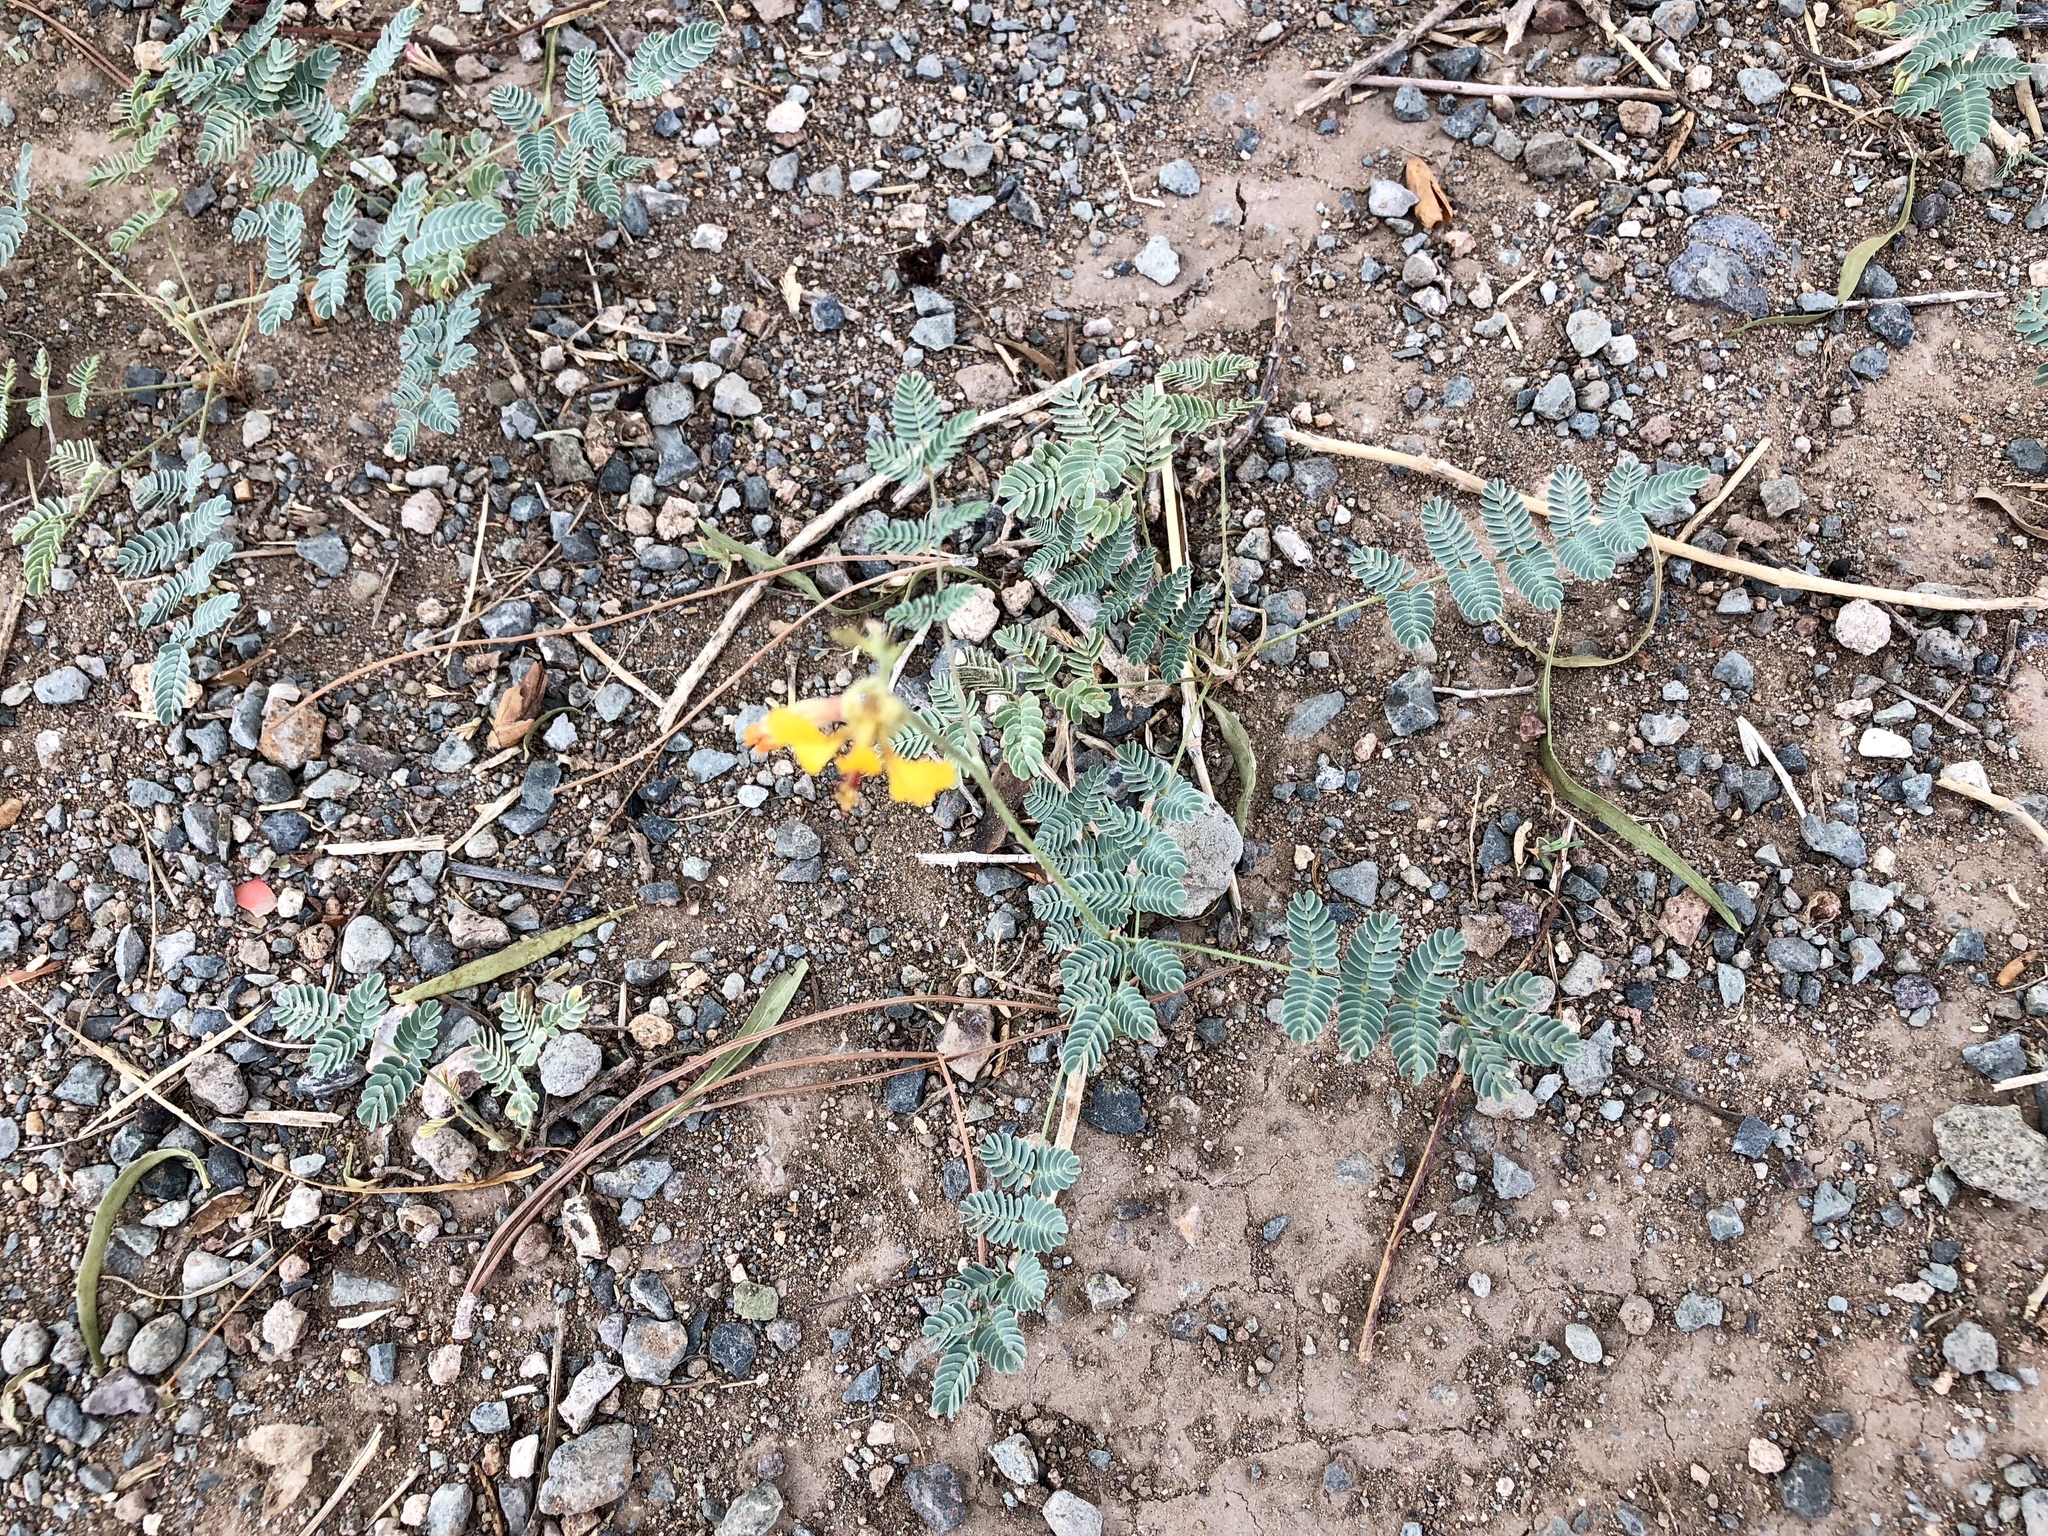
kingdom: Plantae
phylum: Tracheophyta
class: Magnoliopsida
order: Fabales
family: Fabaceae
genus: Hoffmannseggia
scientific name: Hoffmannseggia glauca
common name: Pignut
